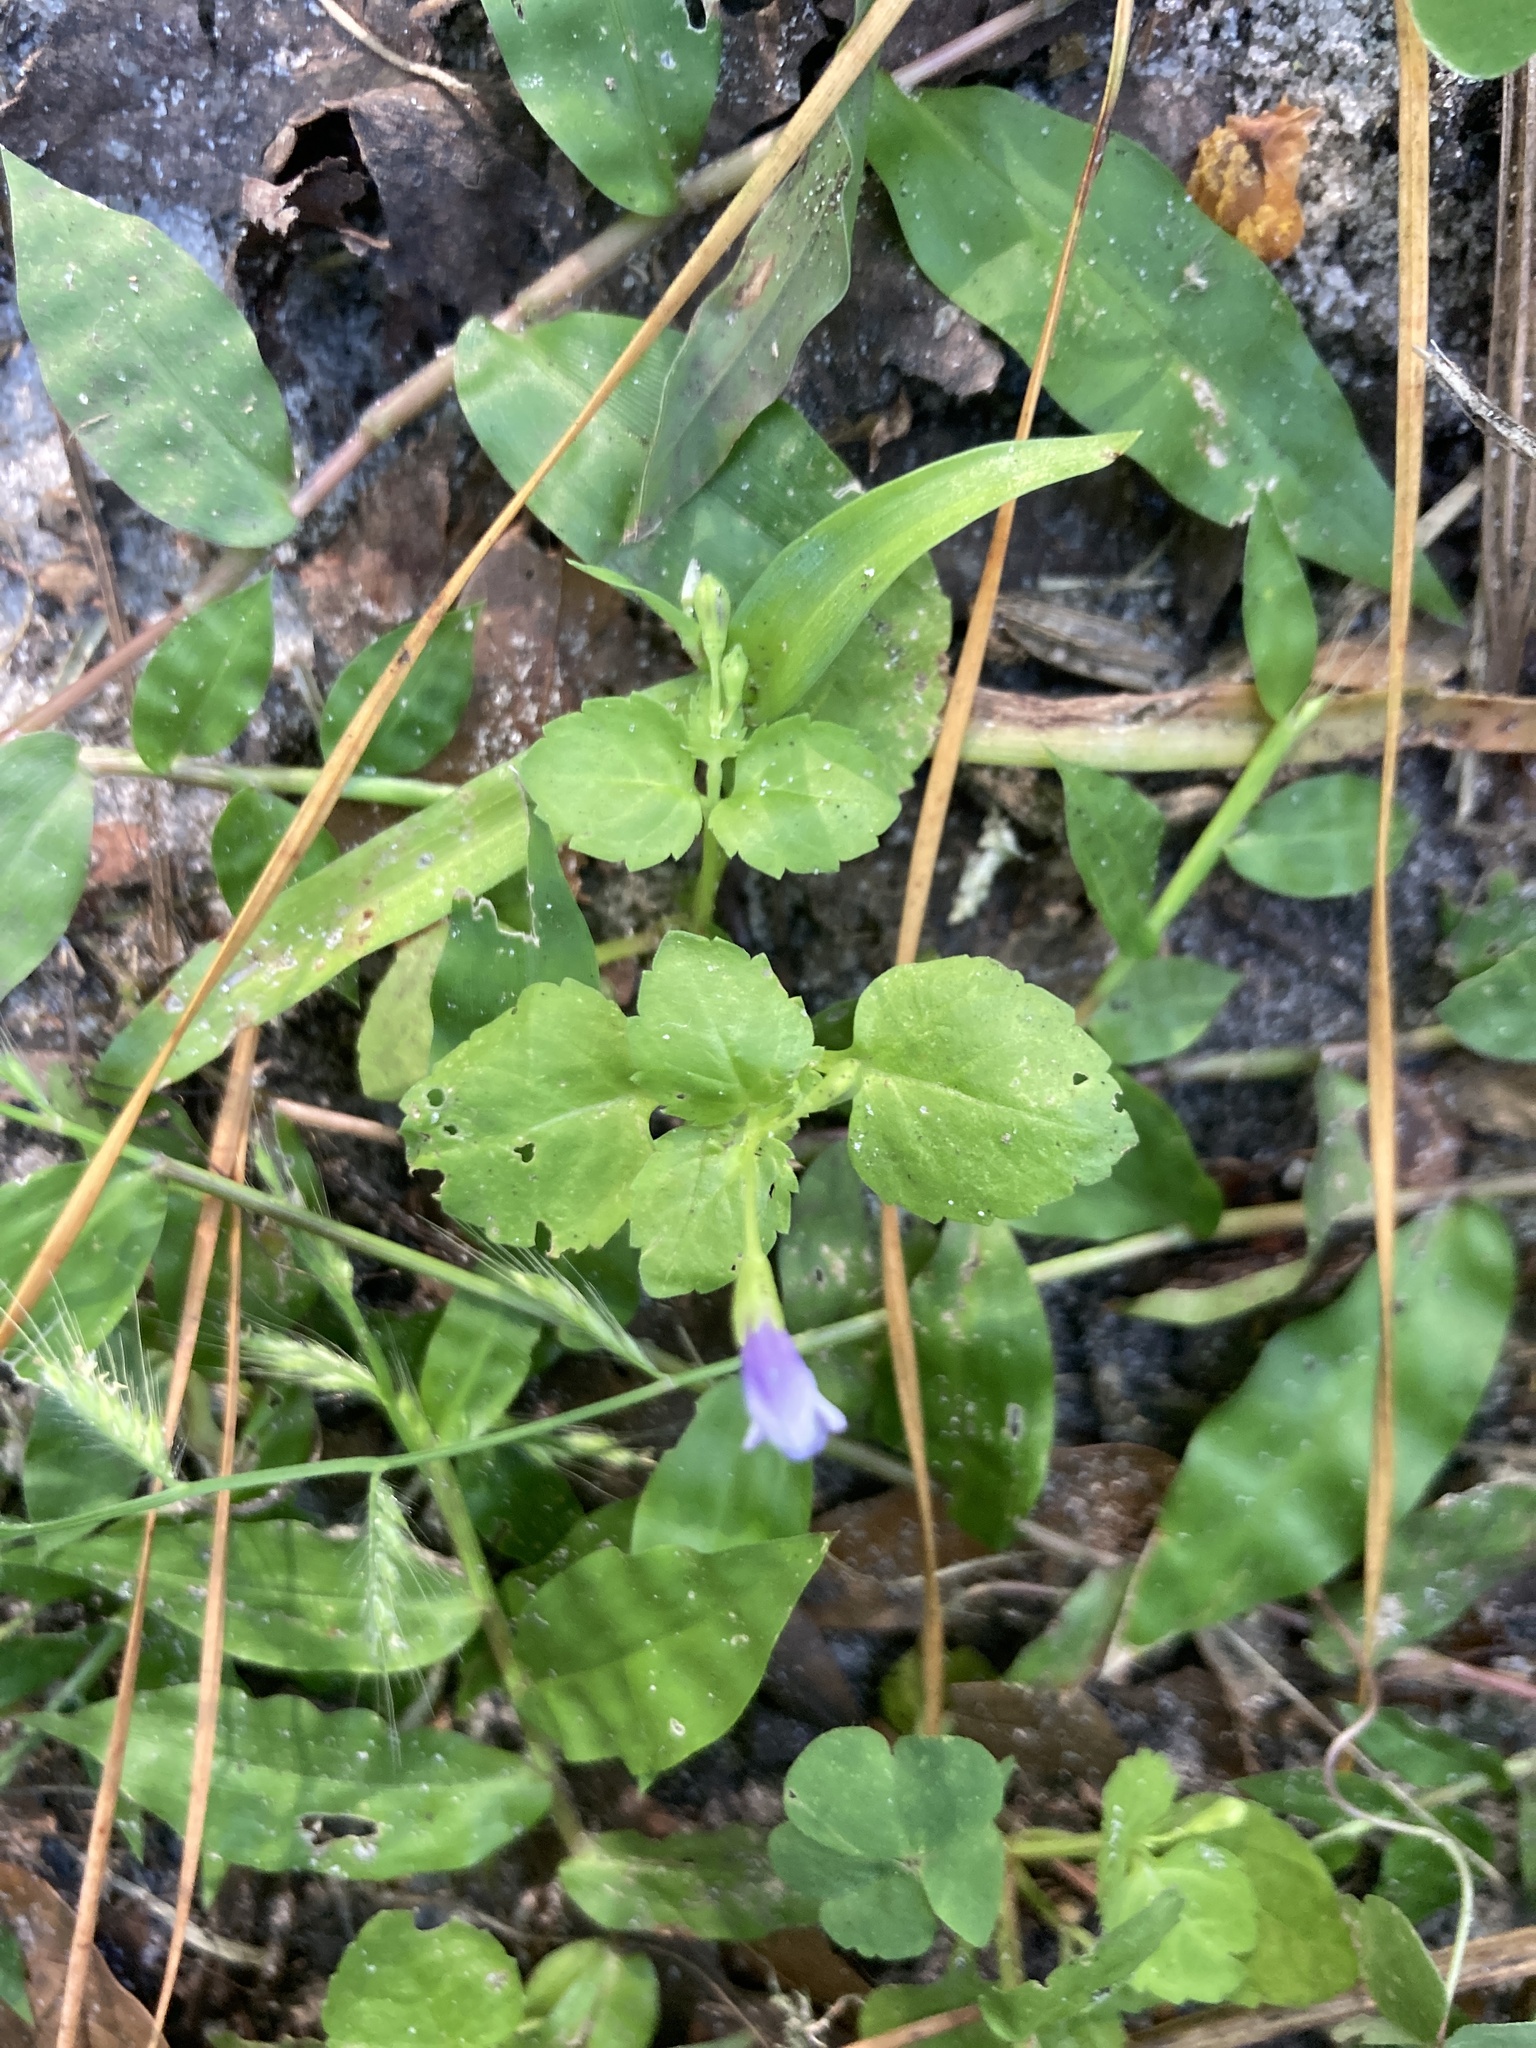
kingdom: Plantae
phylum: Tracheophyta
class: Magnoliopsida
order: Lamiales
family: Linderniaceae
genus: Torenia
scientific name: Torenia crustacea
